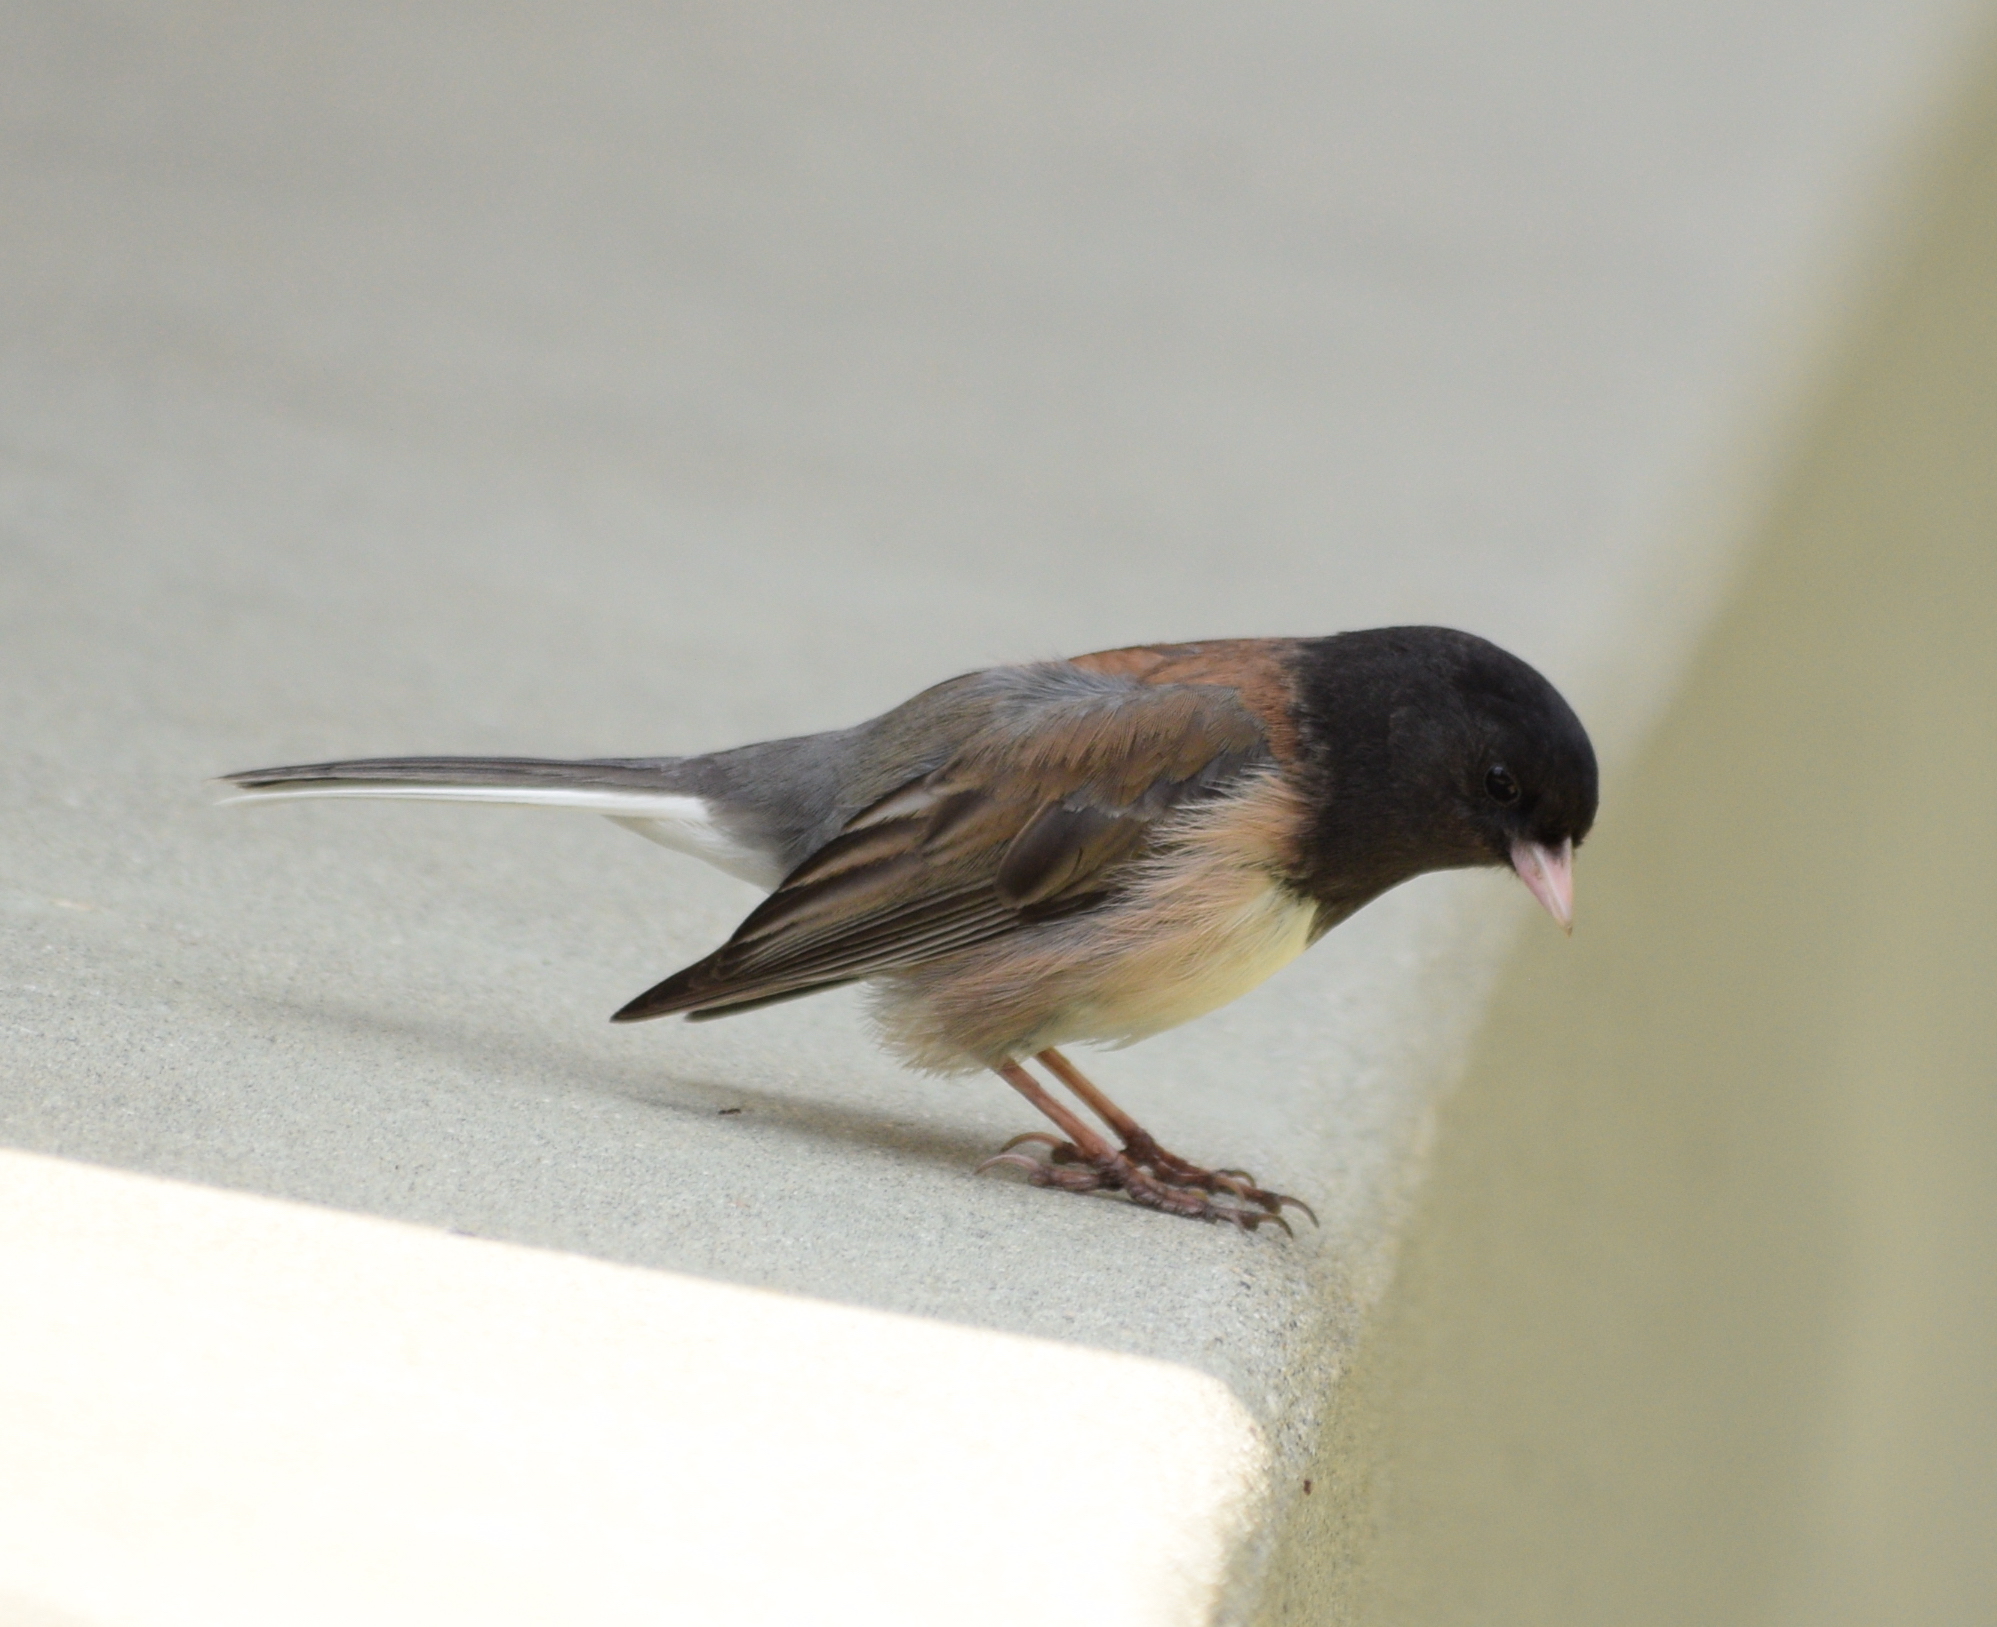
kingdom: Animalia
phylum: Chordata
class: Aves
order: Passeriformes
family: Passerellidae
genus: Junco
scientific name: Junco hyemalis
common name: Dark-eyed junco
